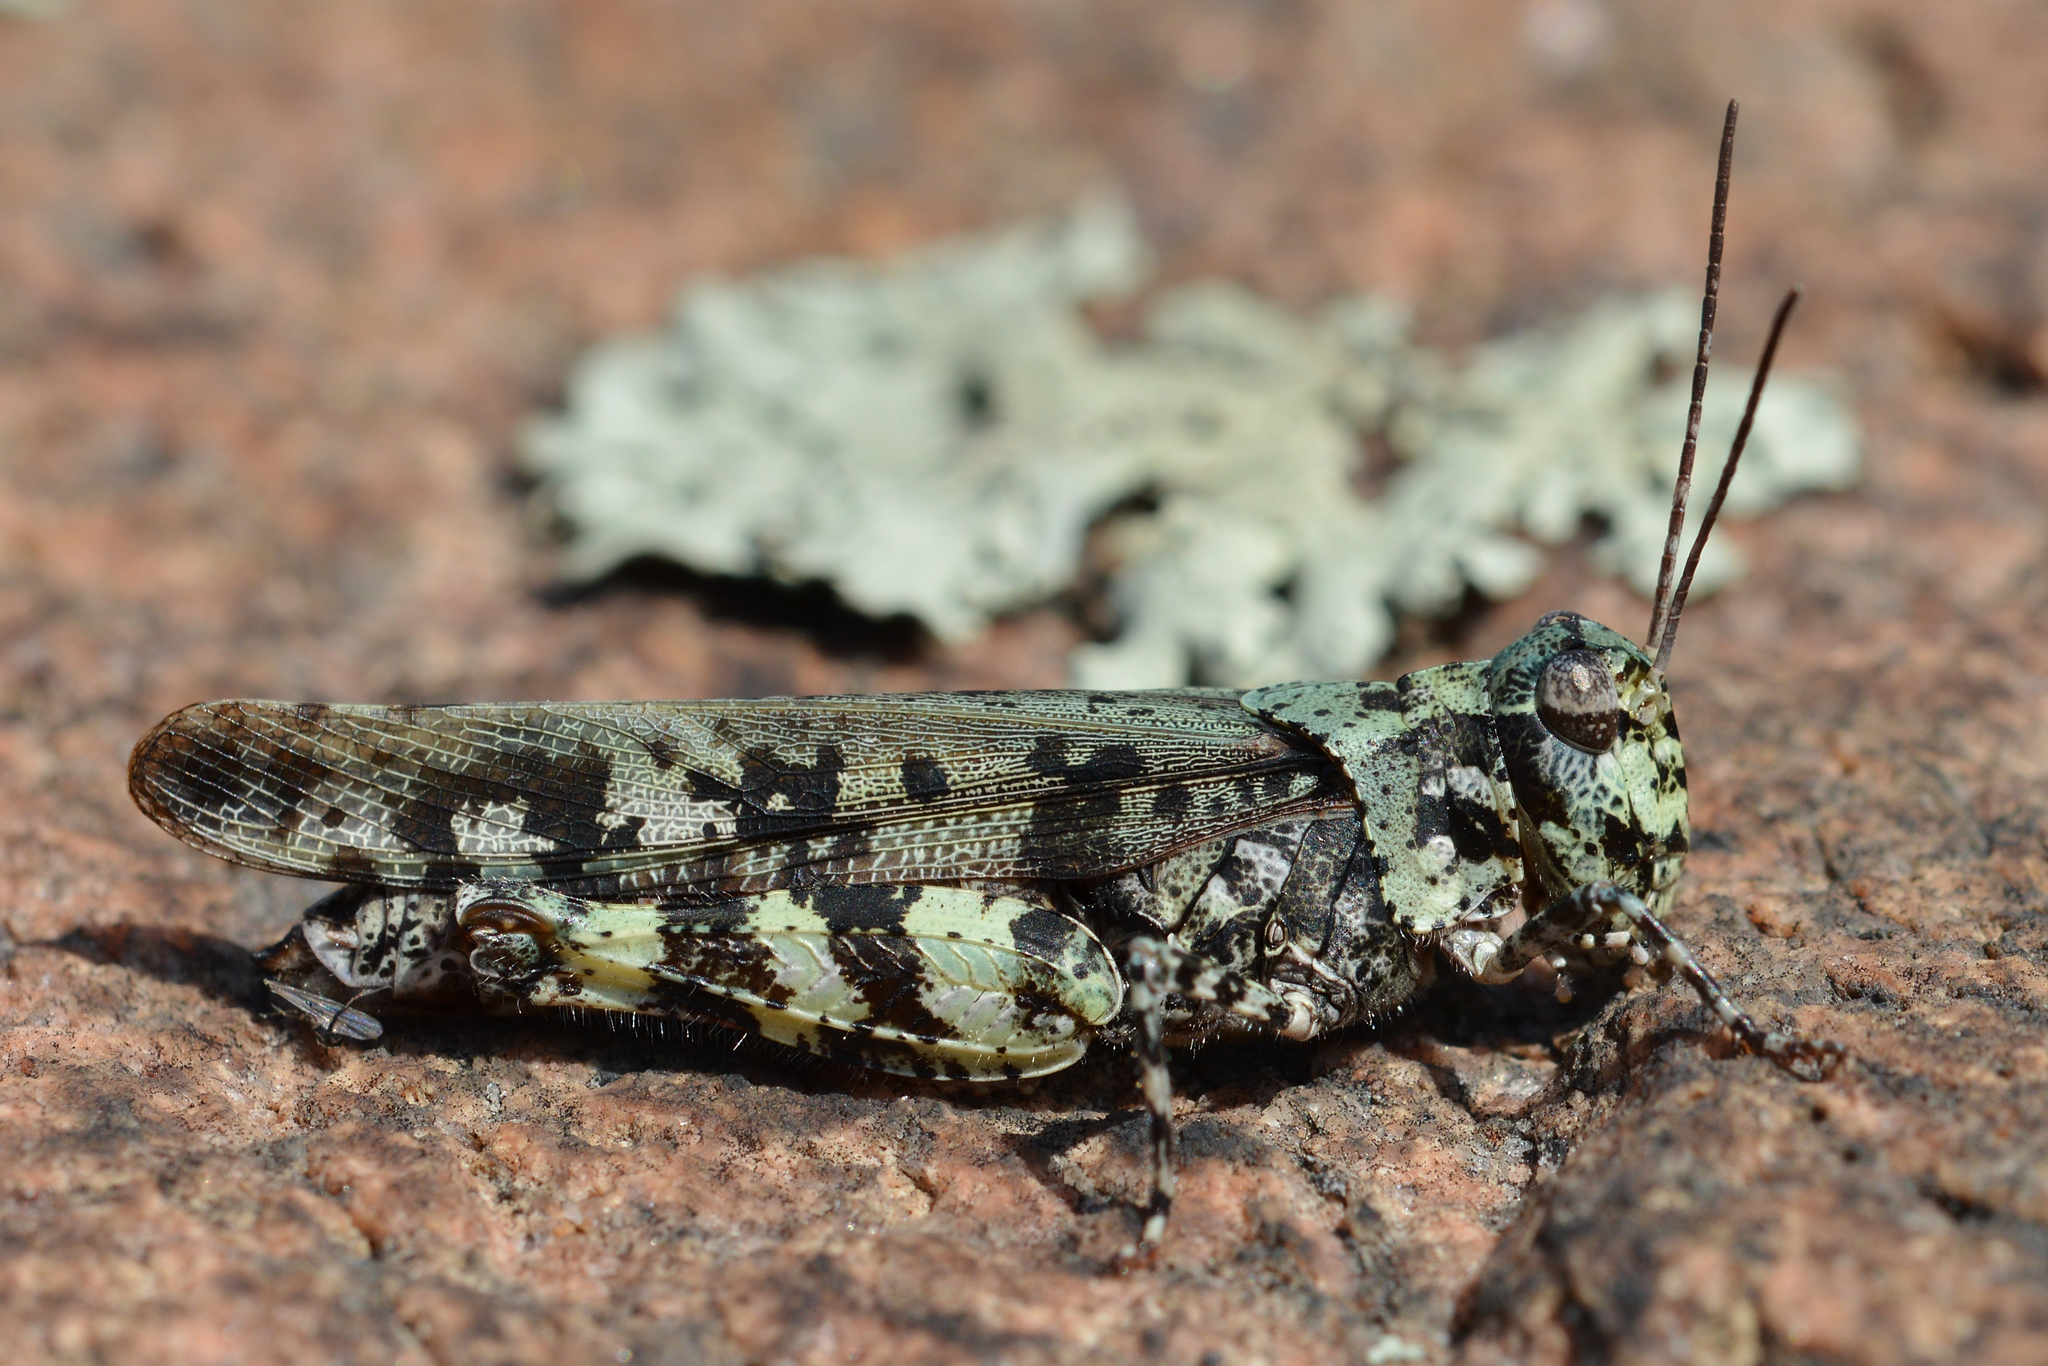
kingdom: Animalia
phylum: Arthropoda
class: Insecta
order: Orthoptera
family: Acrididae
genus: Spharagemon
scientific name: Spharagemon marmoratum
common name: Marbled grasshopper
